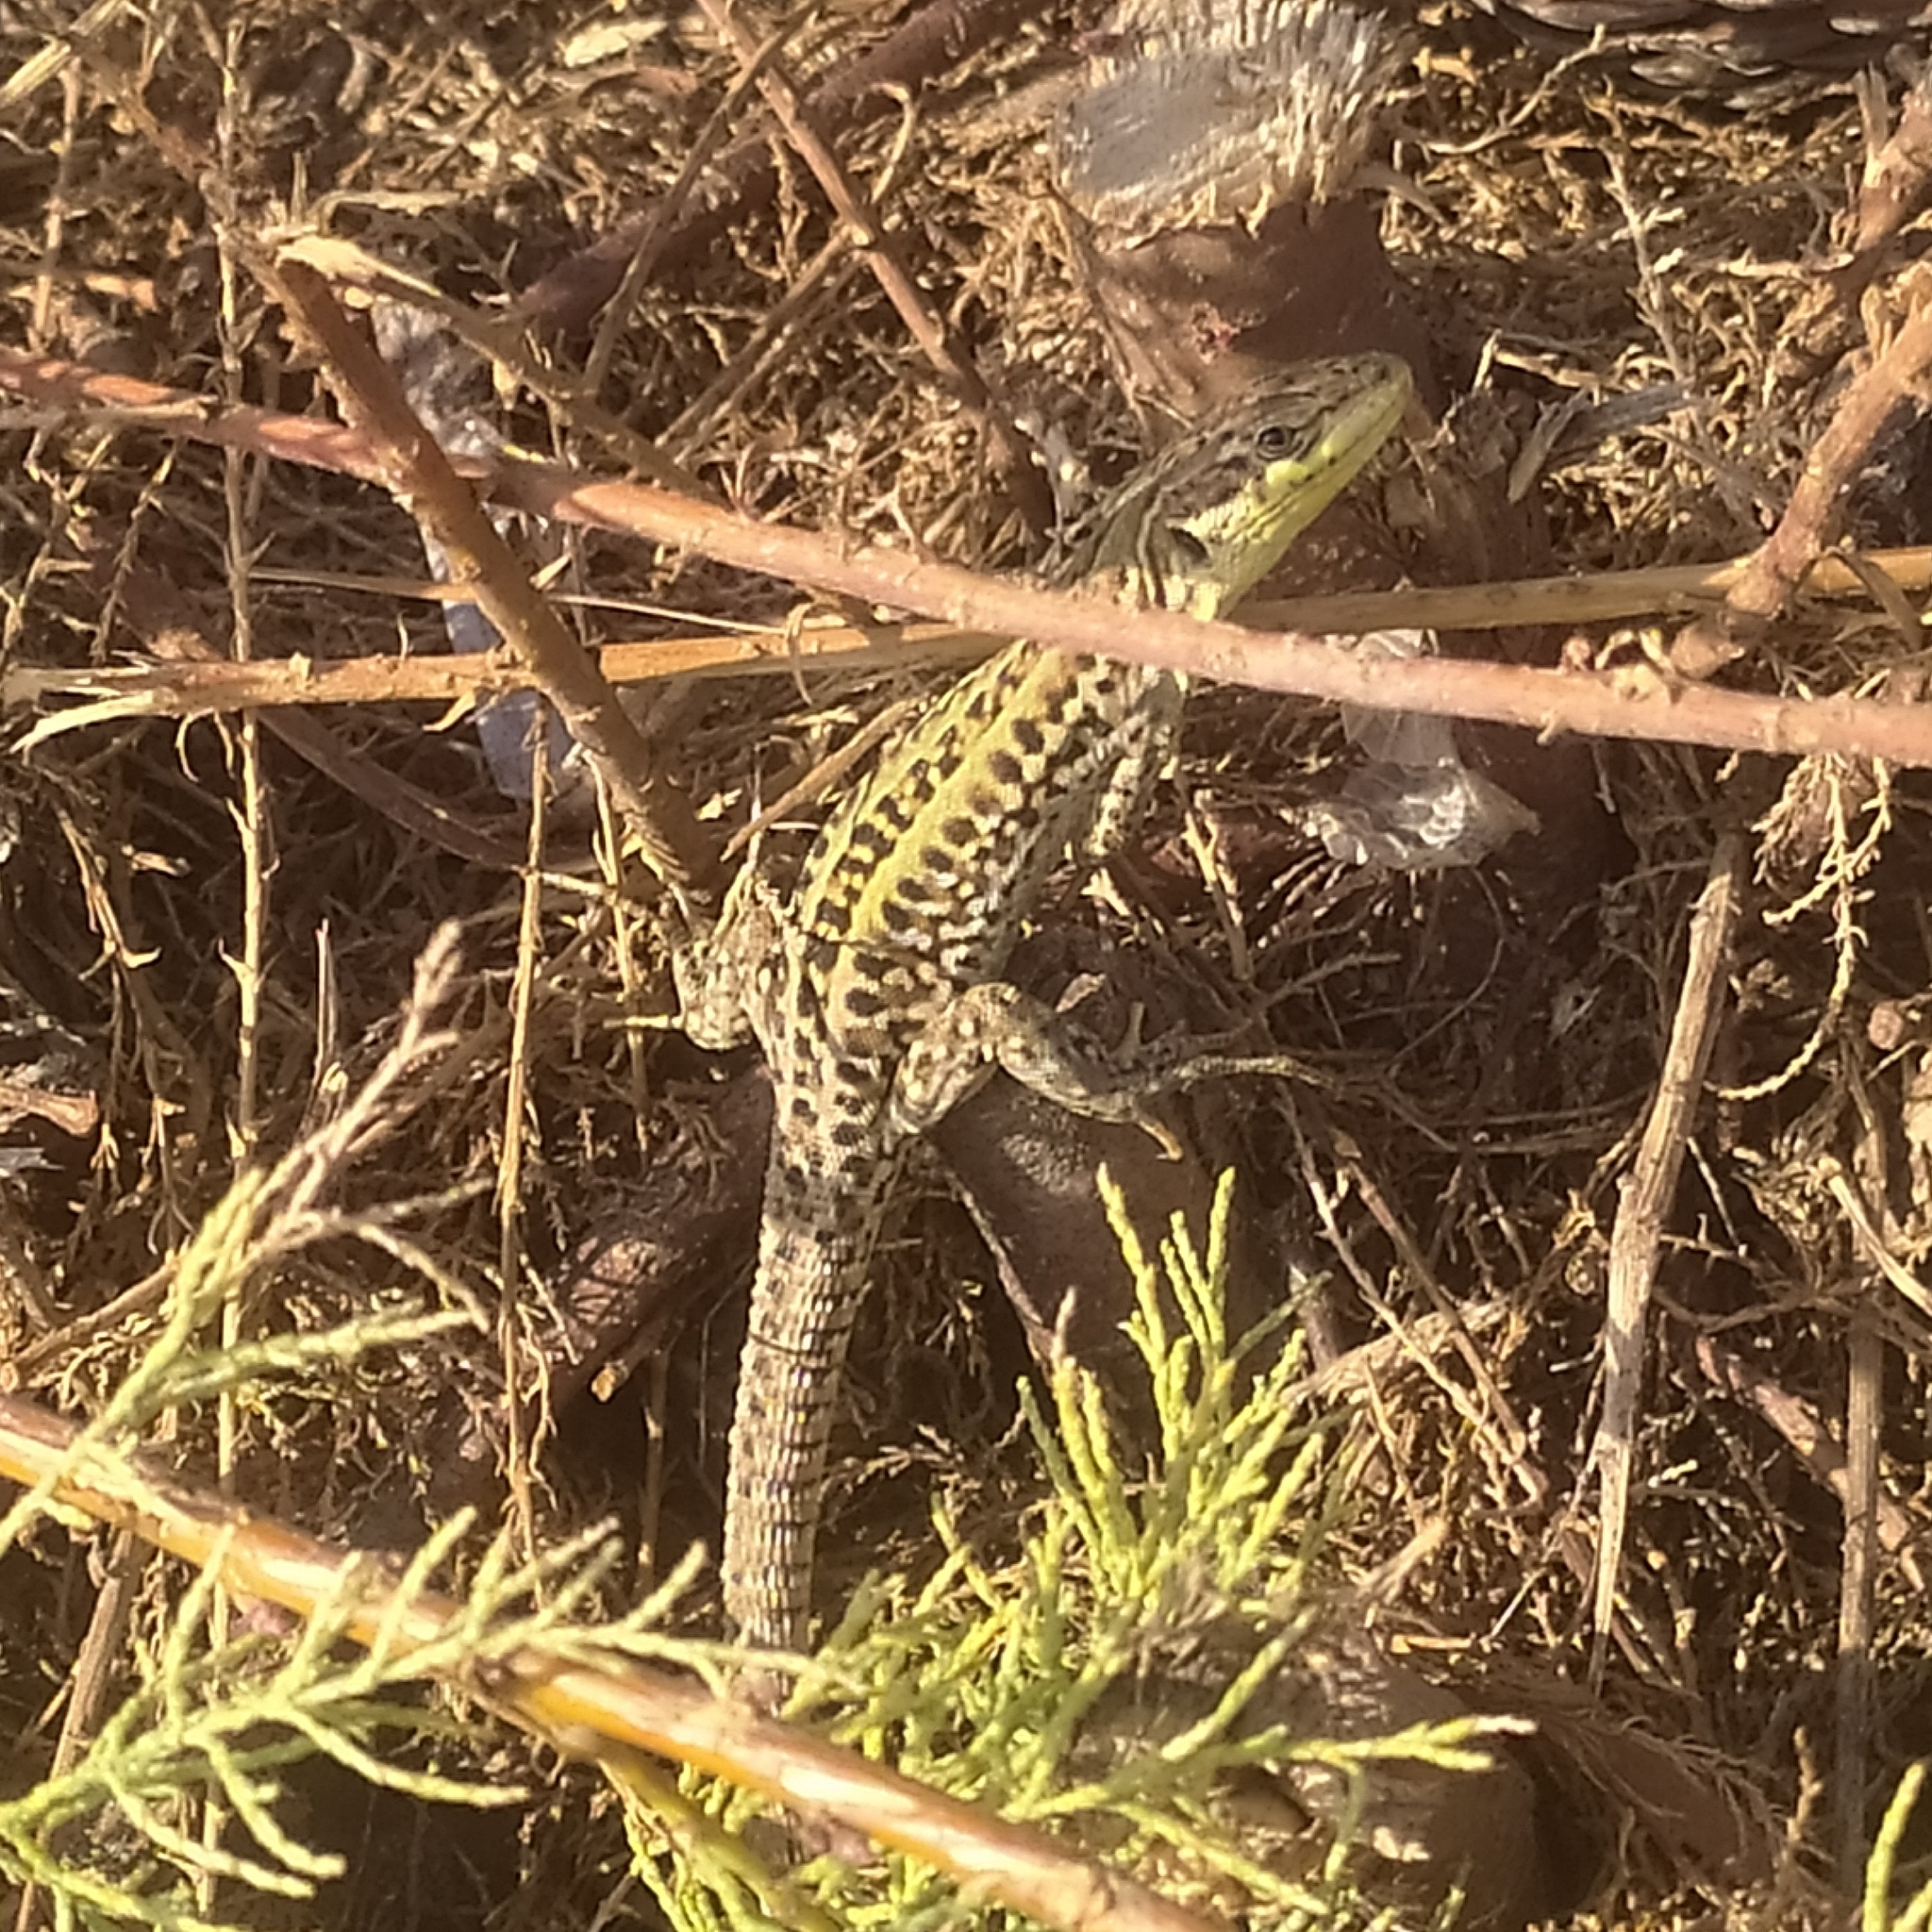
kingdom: Animalia
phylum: Chordata
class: Squamata
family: Lacertidae
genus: Podarcis
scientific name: Podarcis siculus
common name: Italian wall lizard
